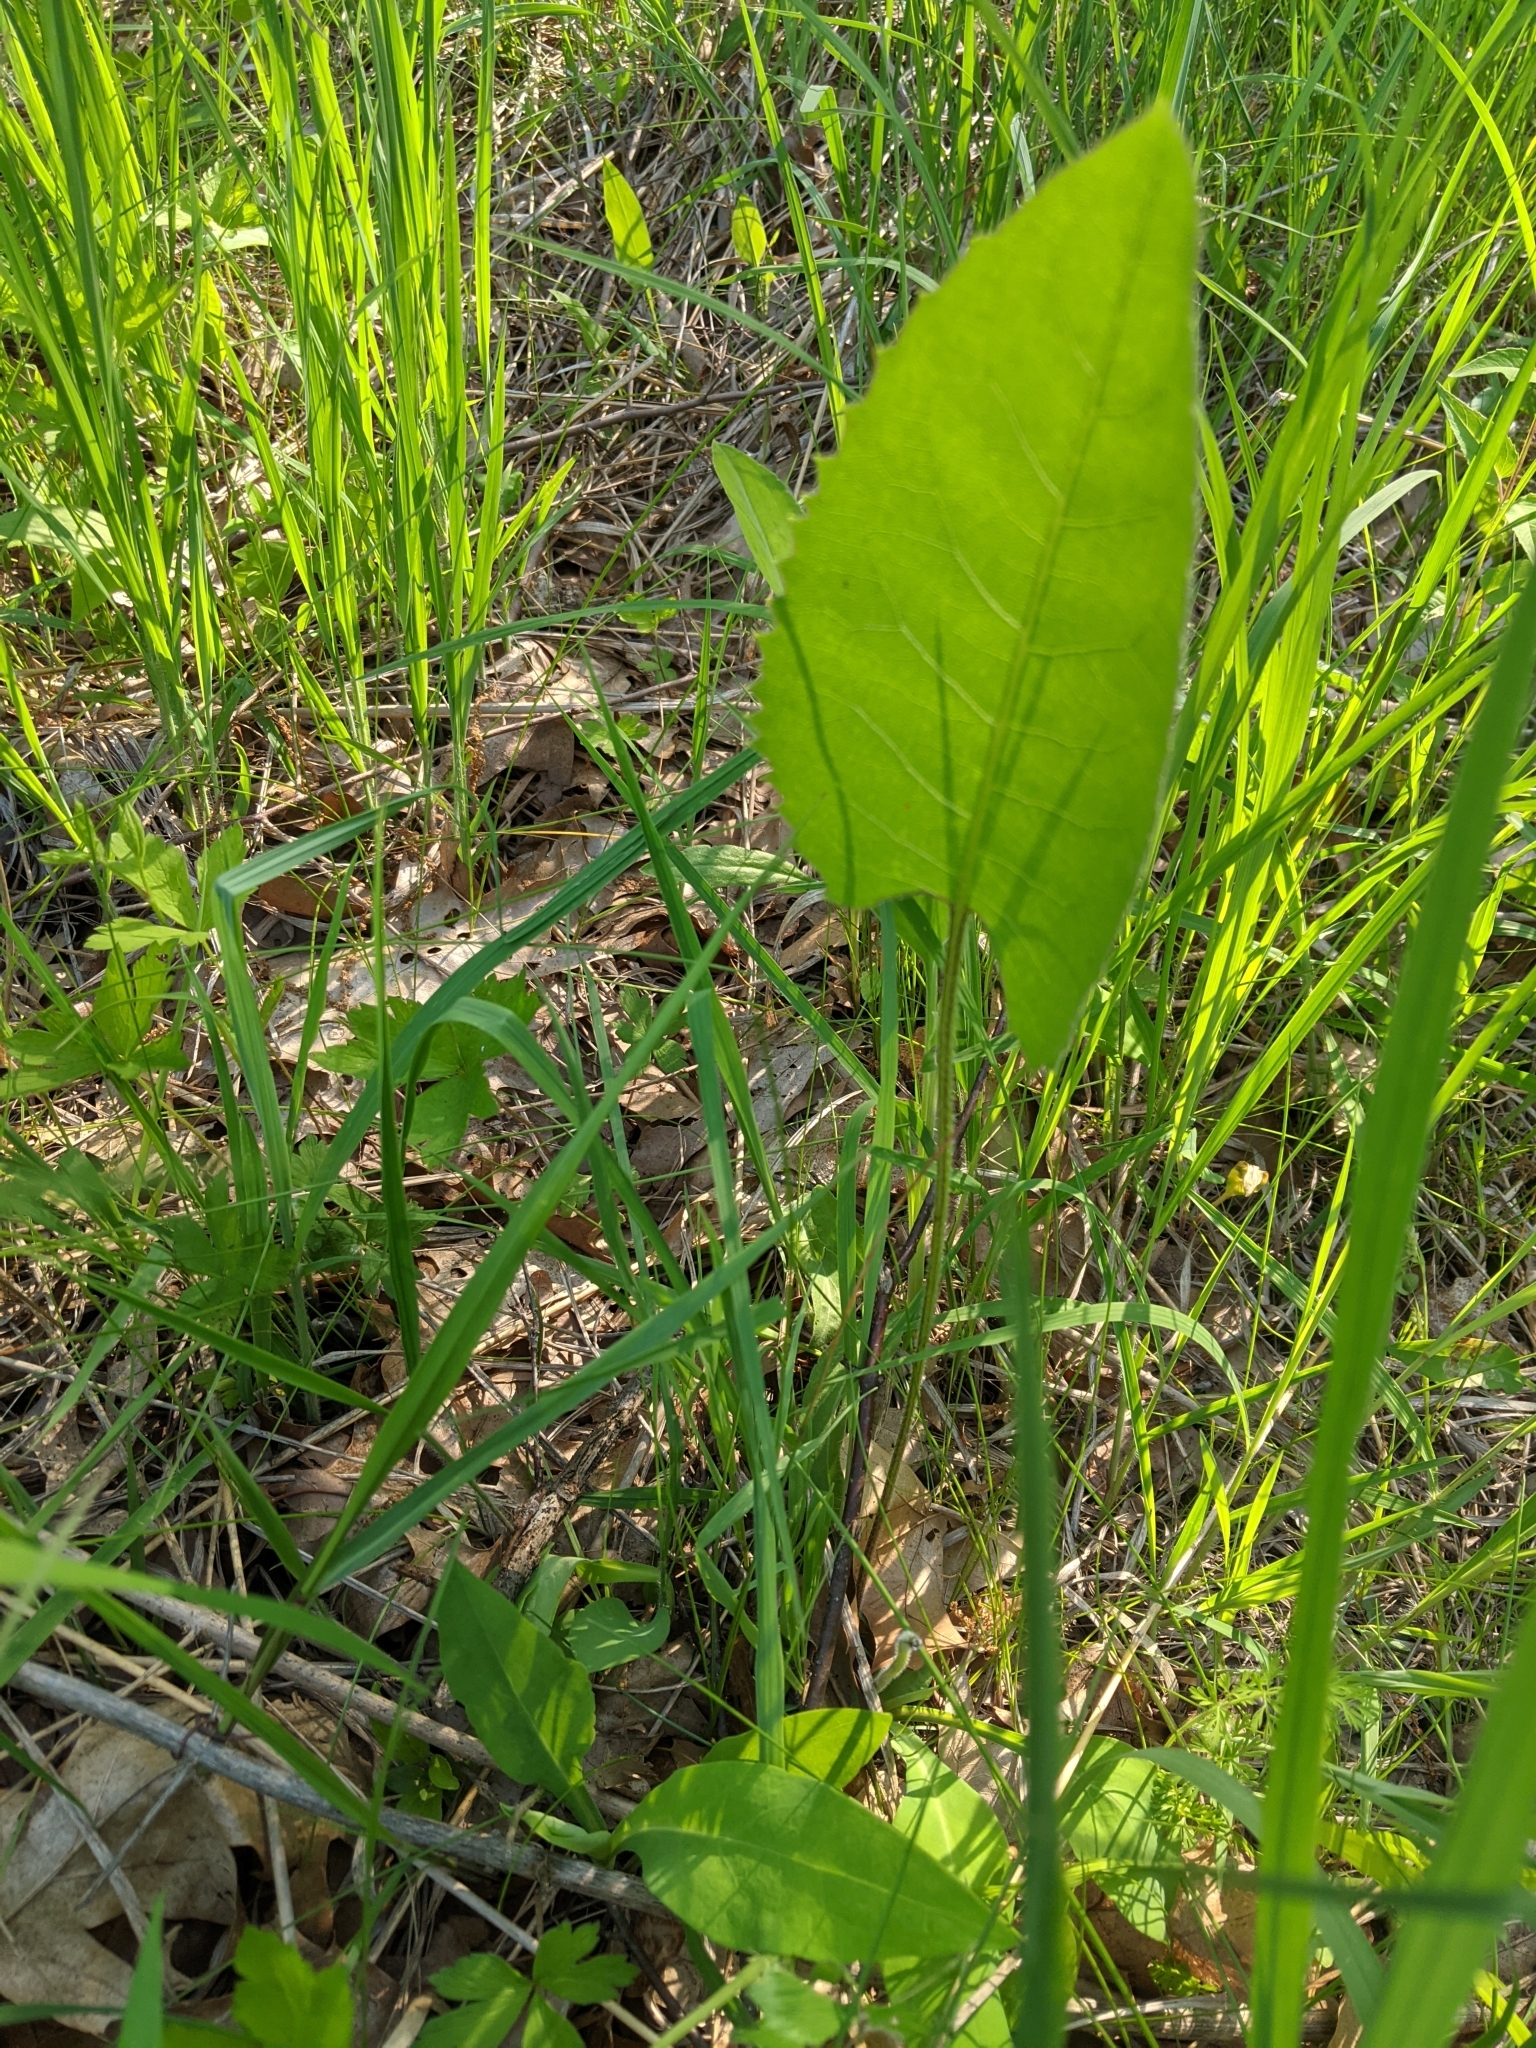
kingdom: Plantae
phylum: Tracheophyta
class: Magnoliopsida
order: Asterales
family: Asteraceae
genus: Silphium
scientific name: Silphium terebinthinaceum
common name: Basal-leaf rosinweed
